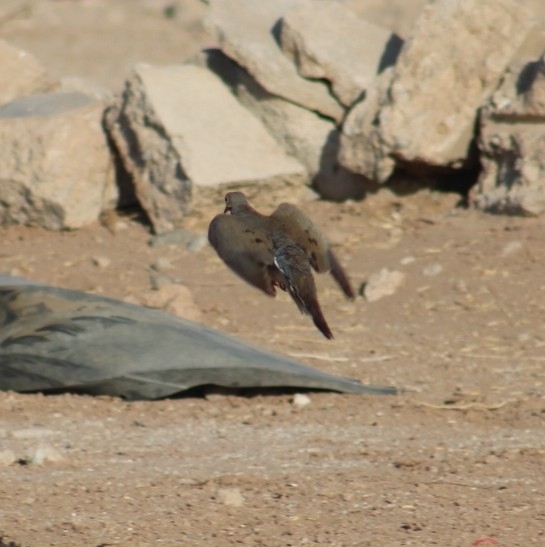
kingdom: Animalia
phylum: Chordata
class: Aves
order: Columbiformes
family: Columbidae
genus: Zenaida
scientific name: Zenaida macroura
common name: Mourning dove
